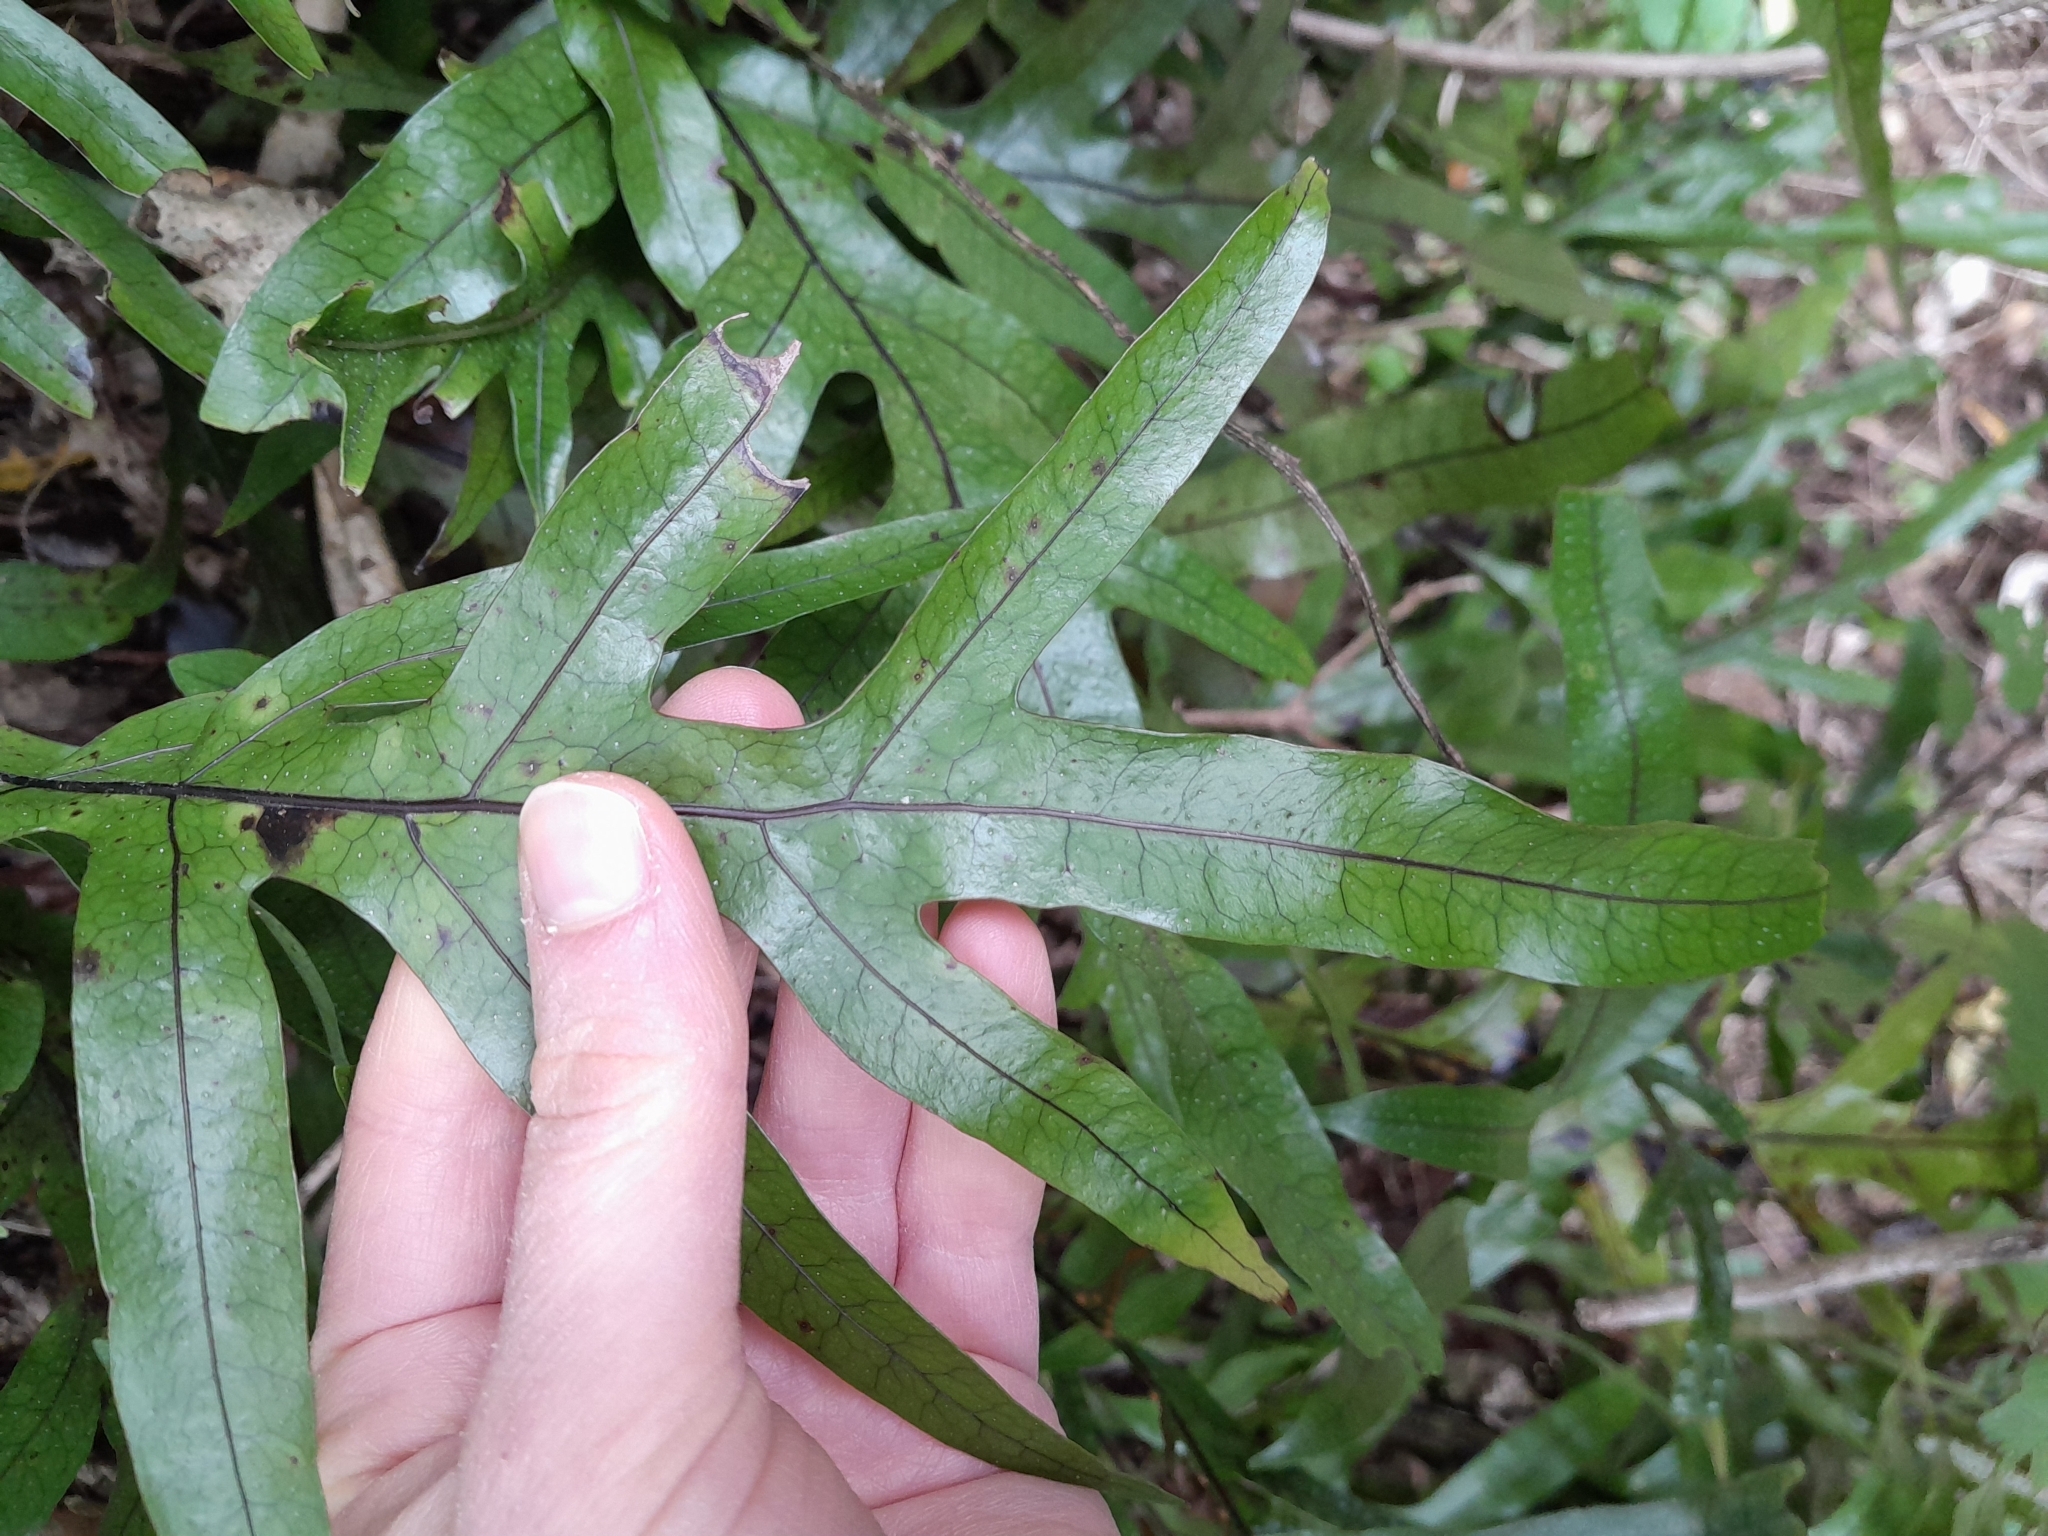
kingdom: Plantae
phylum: Tracheophyta
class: Polypodiopsida
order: Polypodiales
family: Polypodiaceae
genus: Lecanopteris
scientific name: Lecanopteris pustulata
